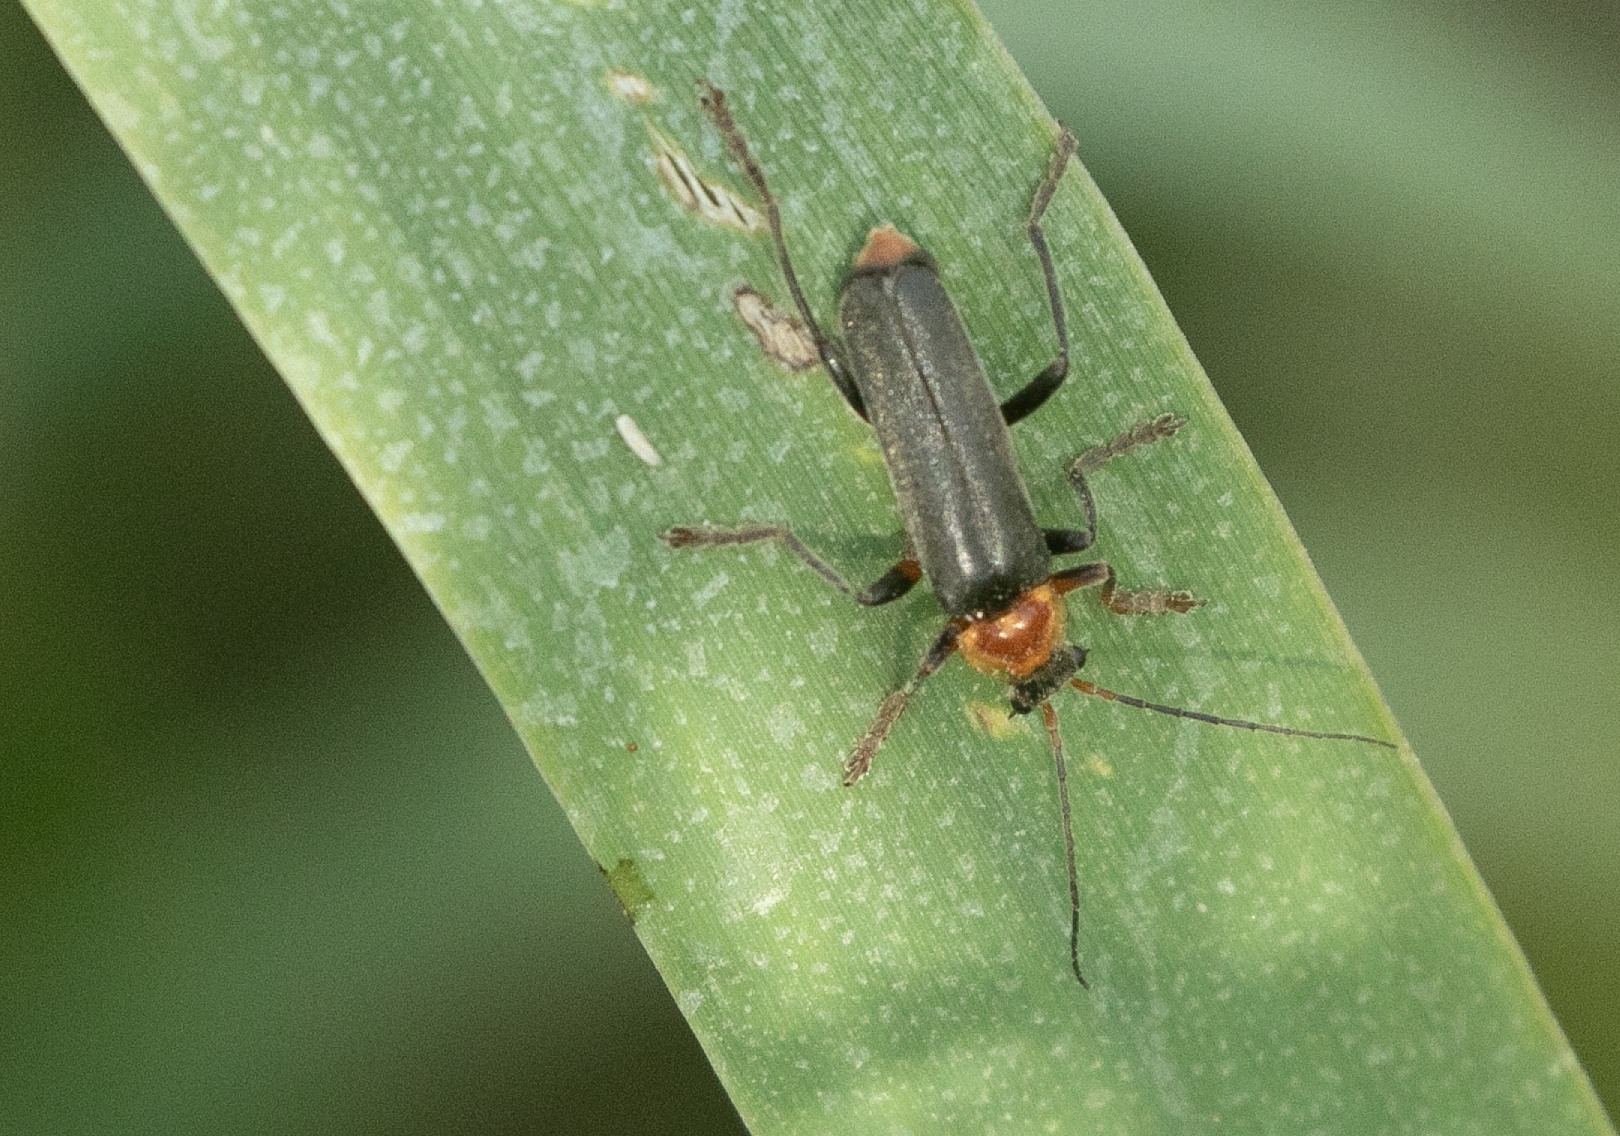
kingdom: Animalia
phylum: Arthropoda
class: Insecta
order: Coleoptera
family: Cantharidae
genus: Cantharis
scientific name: Cantharis livida
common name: Livid soldier beetle
